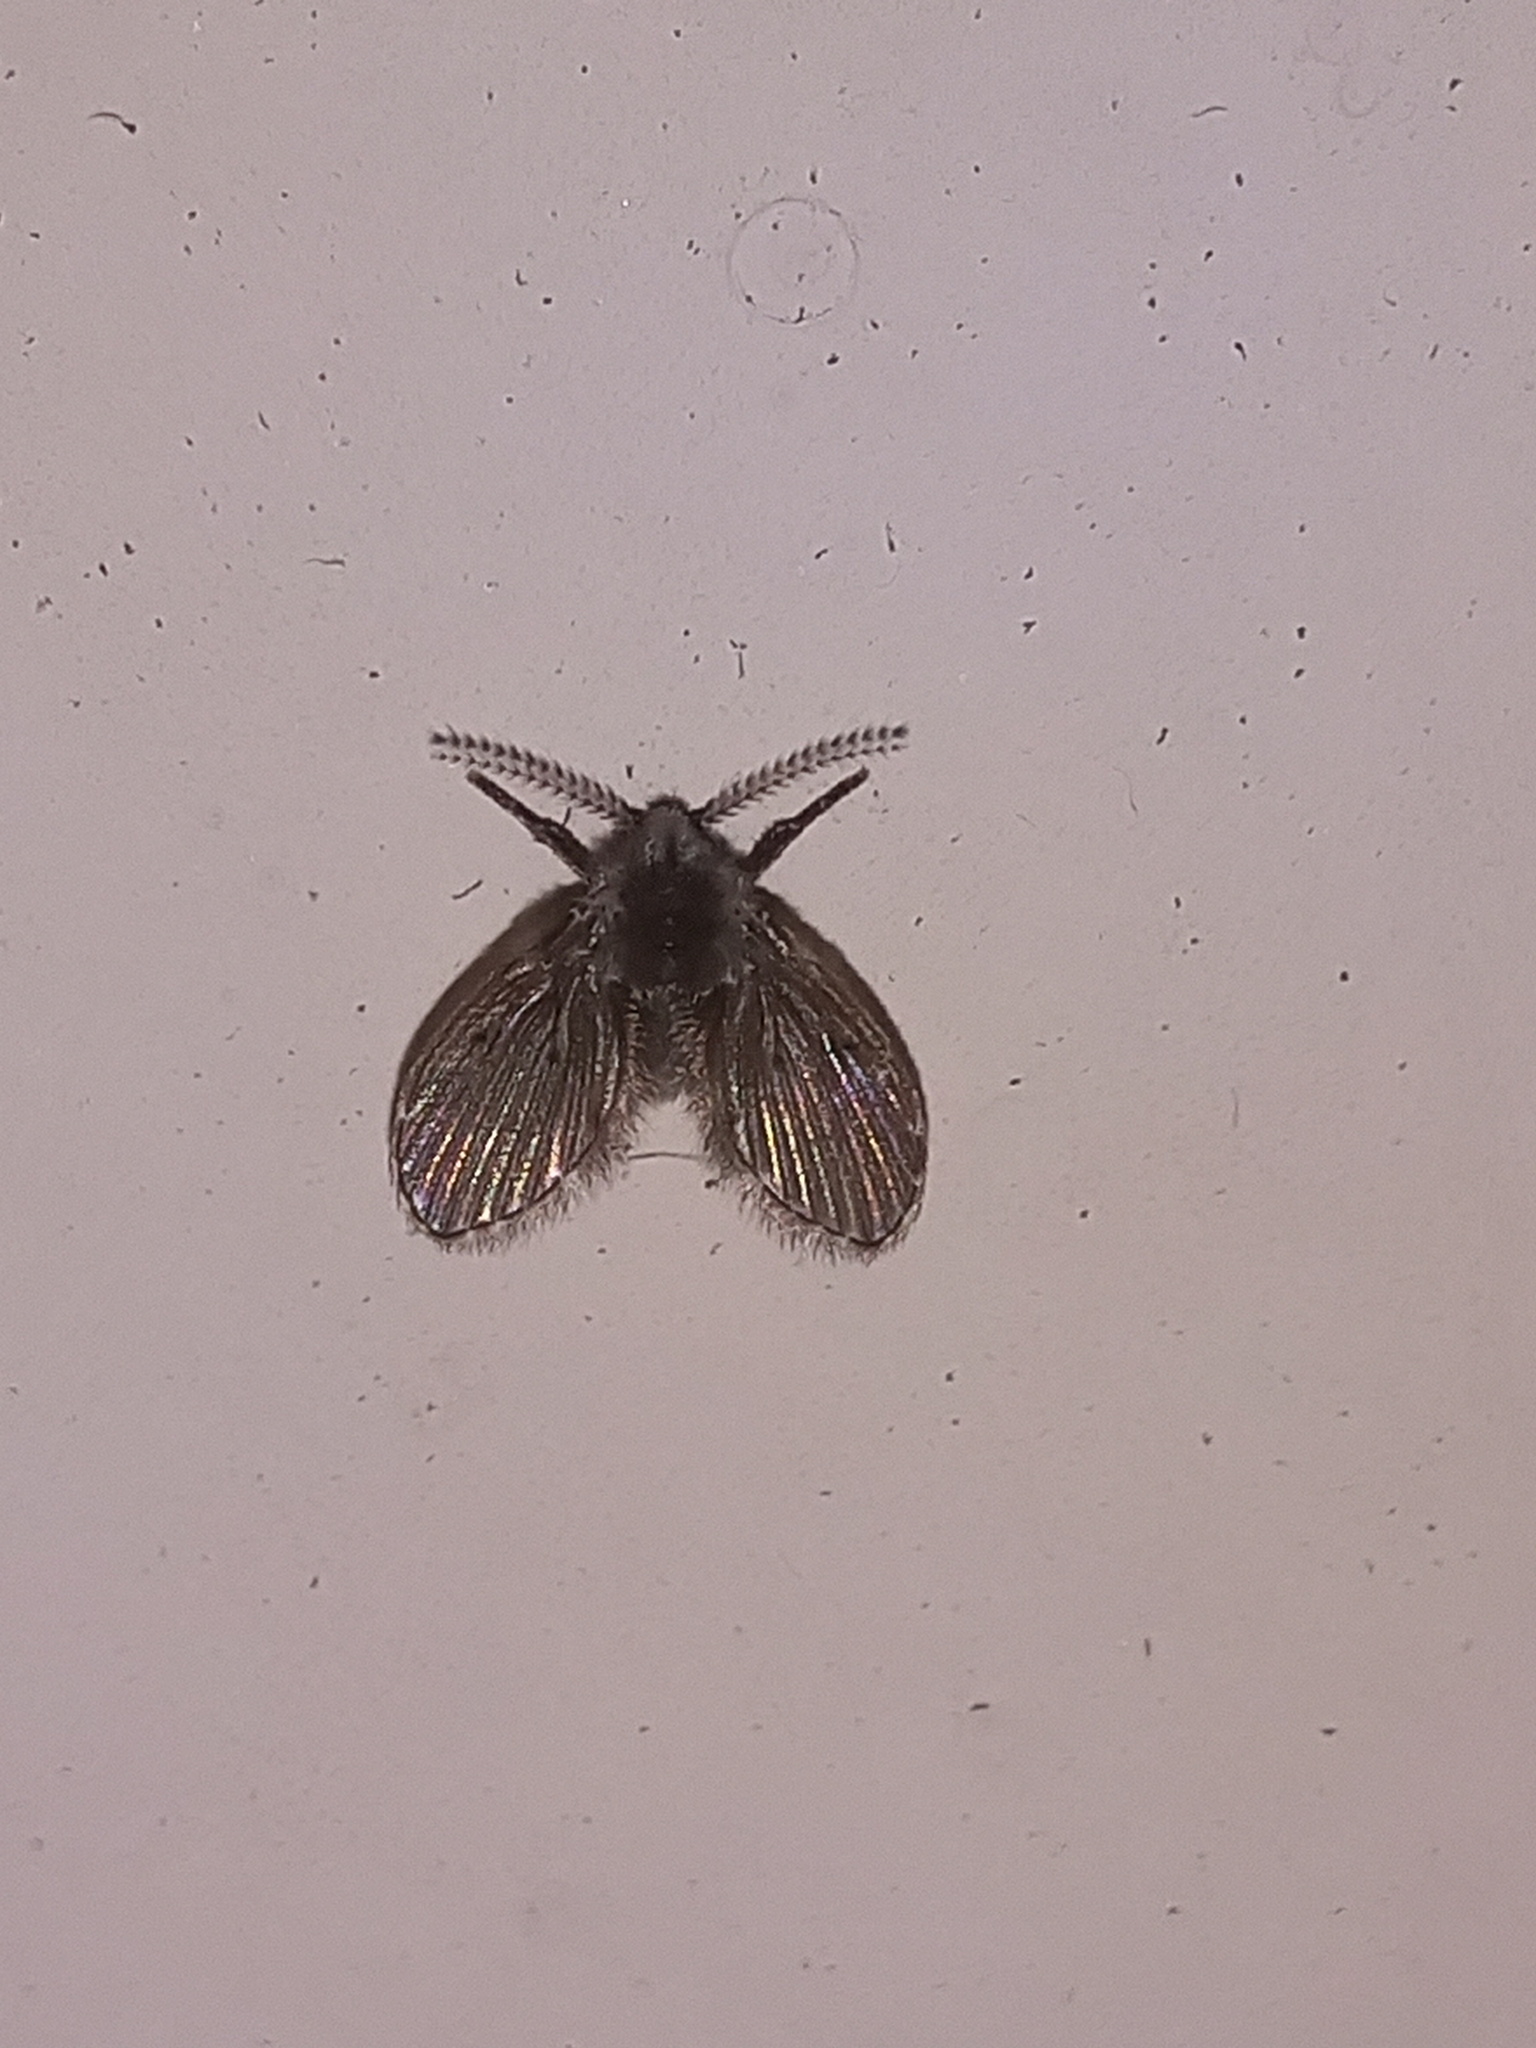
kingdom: Animalia
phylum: Arthropoda
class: Insecta
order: Diptera
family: Psychodidae
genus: Clogmia
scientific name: Clogmia albipunctatus
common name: White-spotted moth fly
